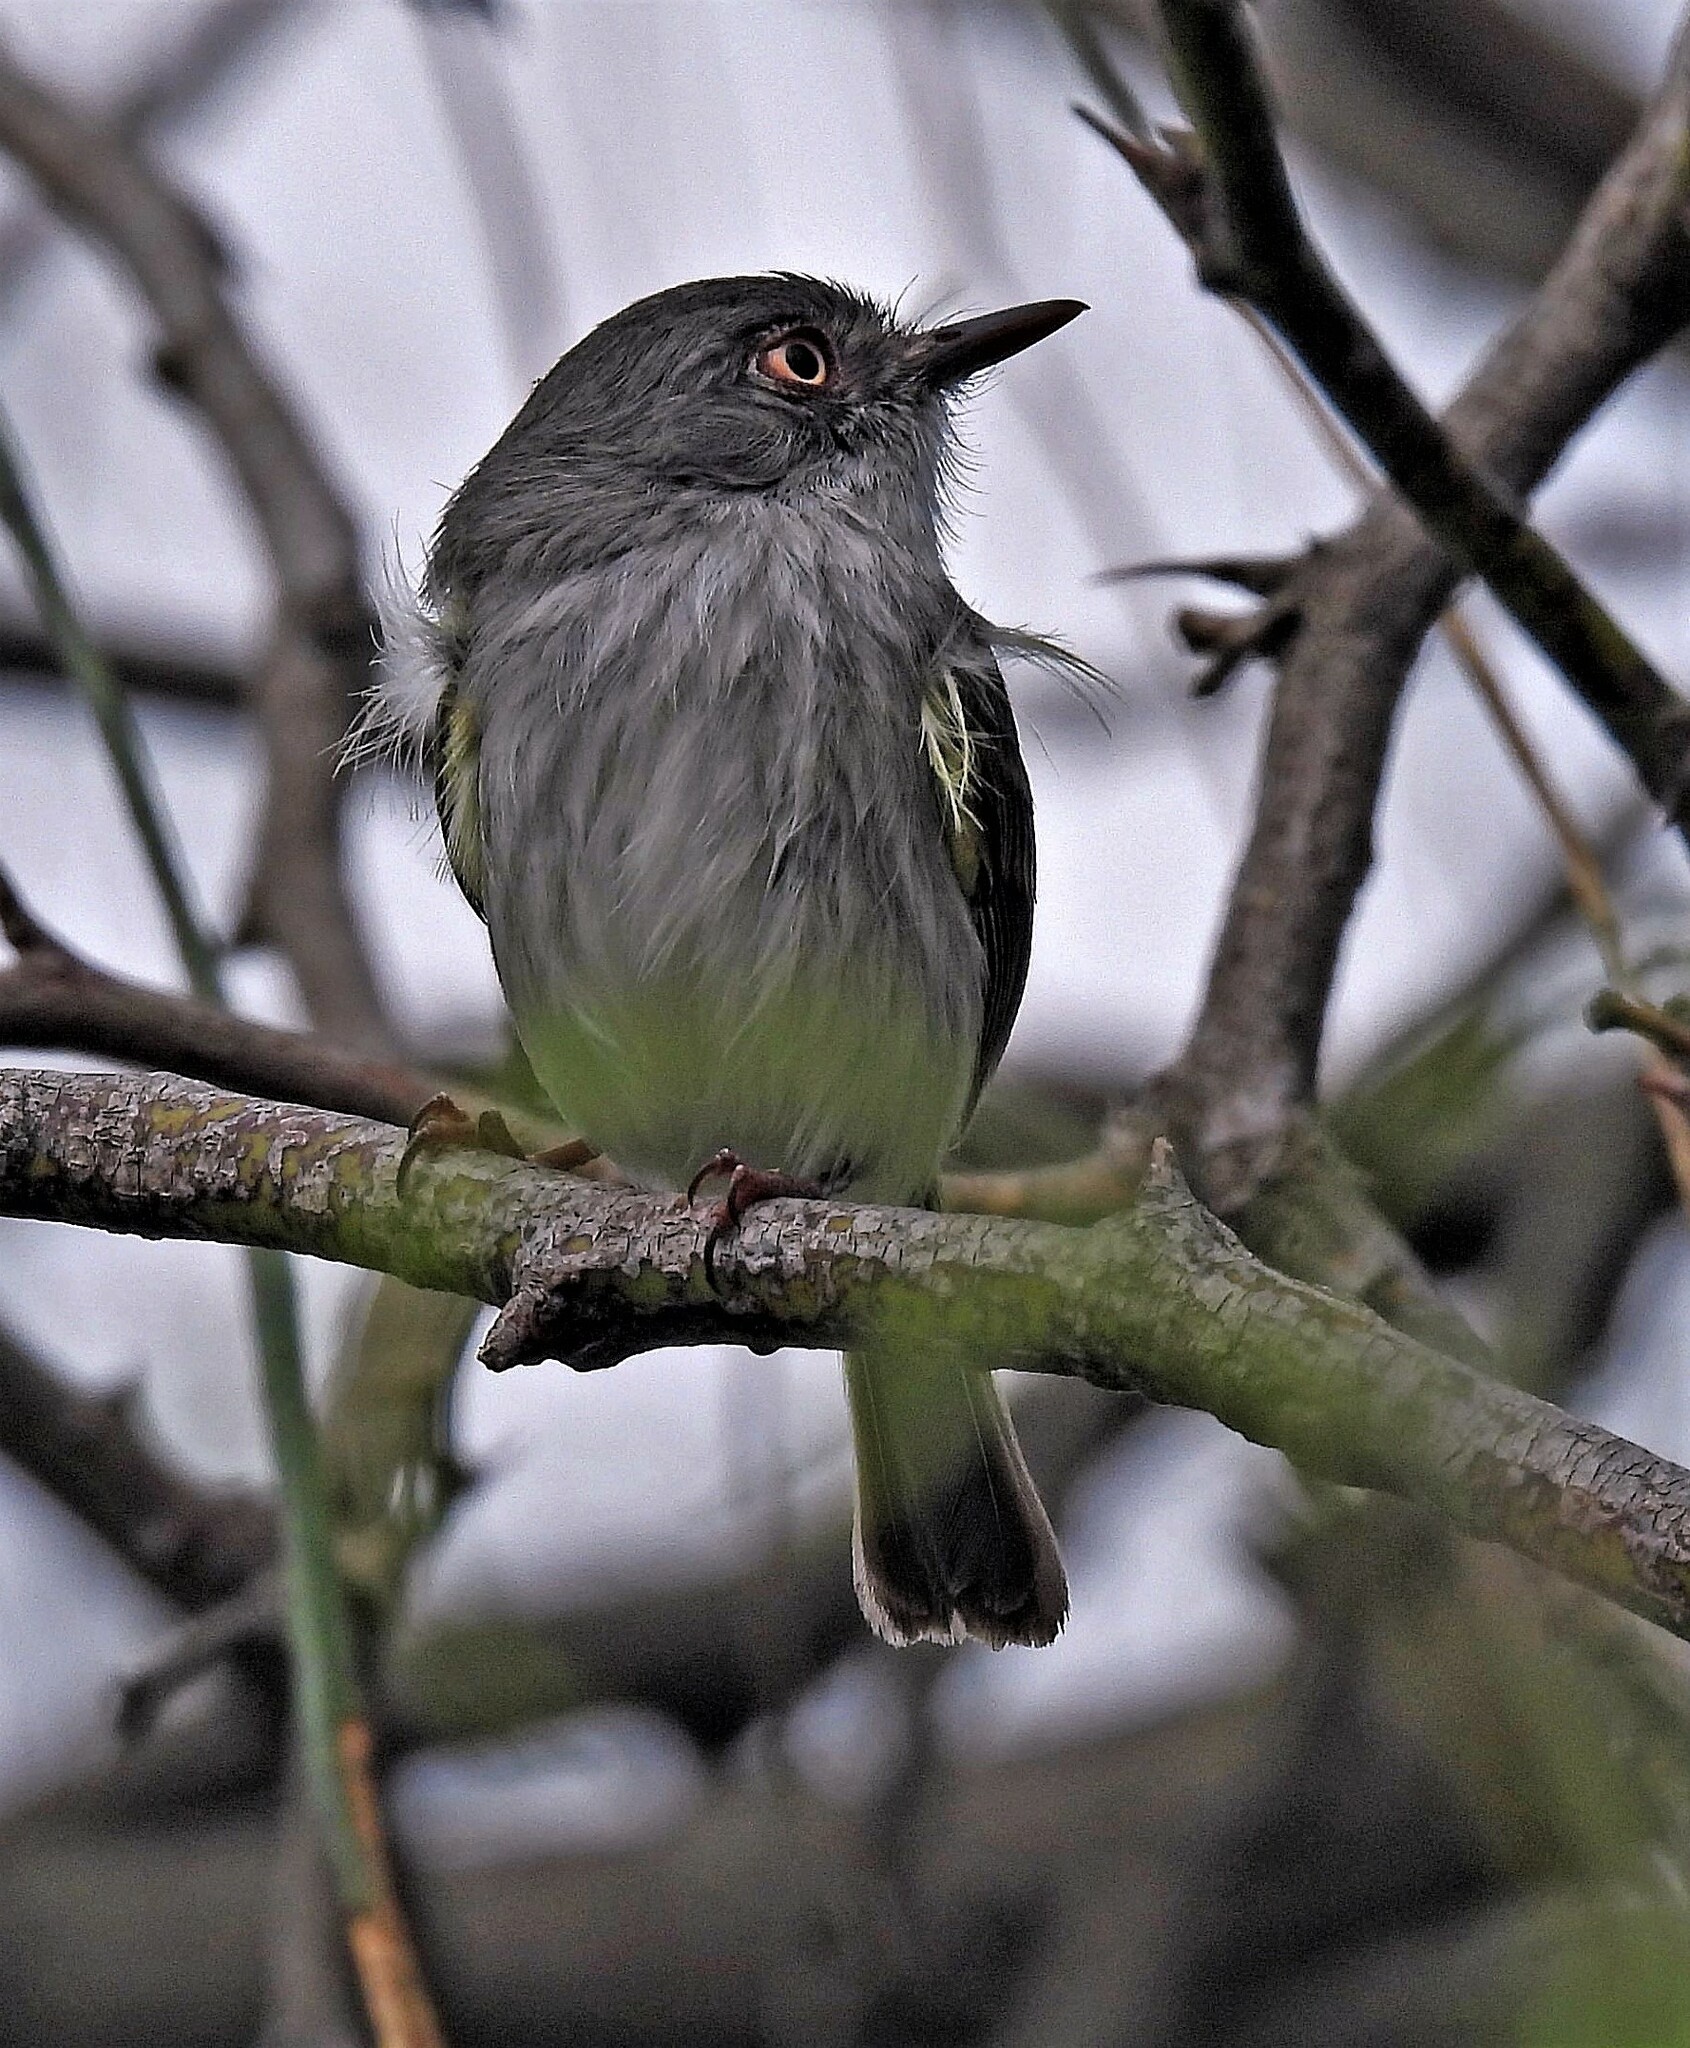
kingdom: Animalia
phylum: Chordata
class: Aves
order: Passeriformes
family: Tyrannidae
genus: Hemitriccus
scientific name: Hemitriccus margaritaceiventer
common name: Pearly-vented tody-tyrant
